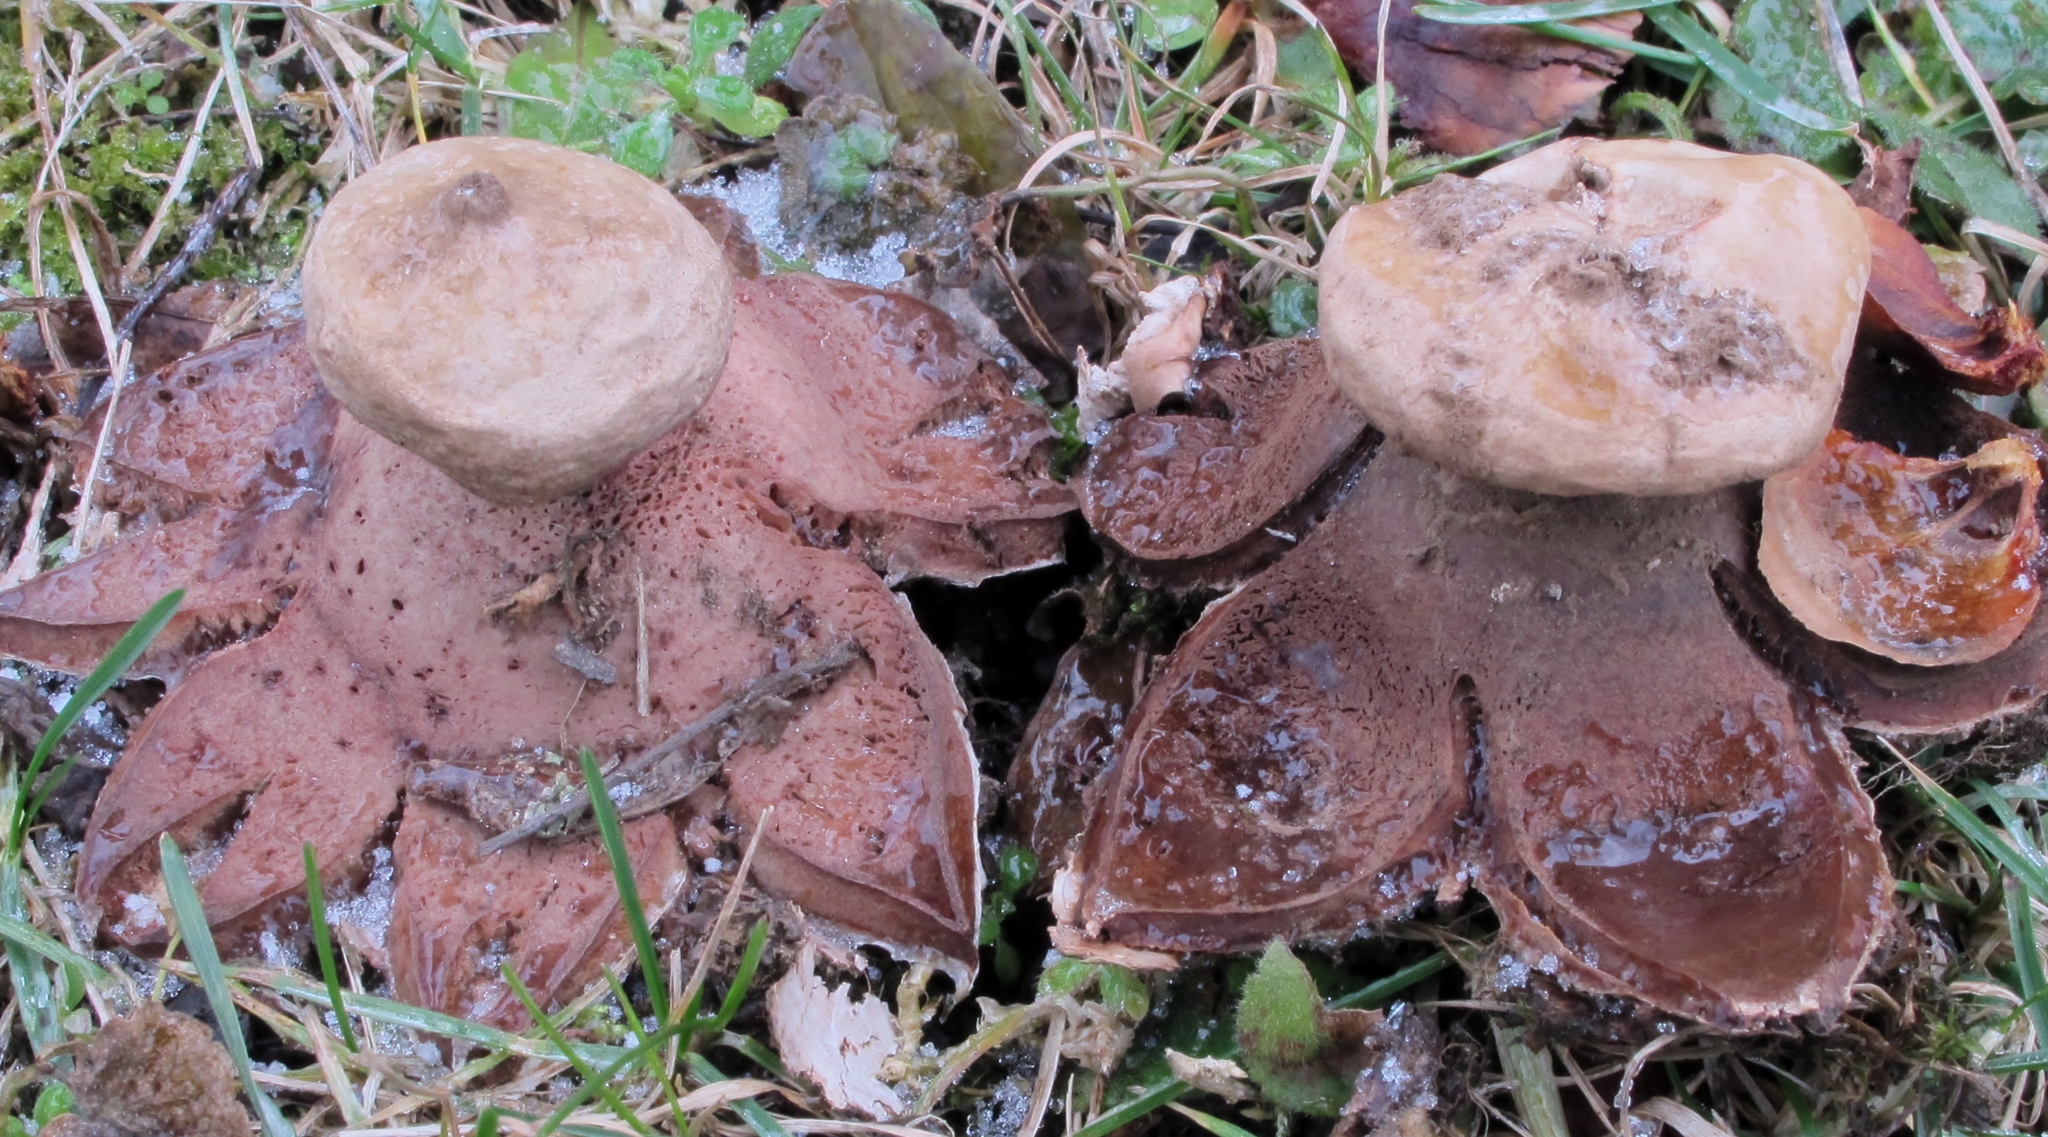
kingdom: Fungi
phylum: Basidiomycota
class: Agaricomycetes
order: Geastrales
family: Geastraceae
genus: Geastrum
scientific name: Geastrum rufescens
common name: Rosy earthstar
